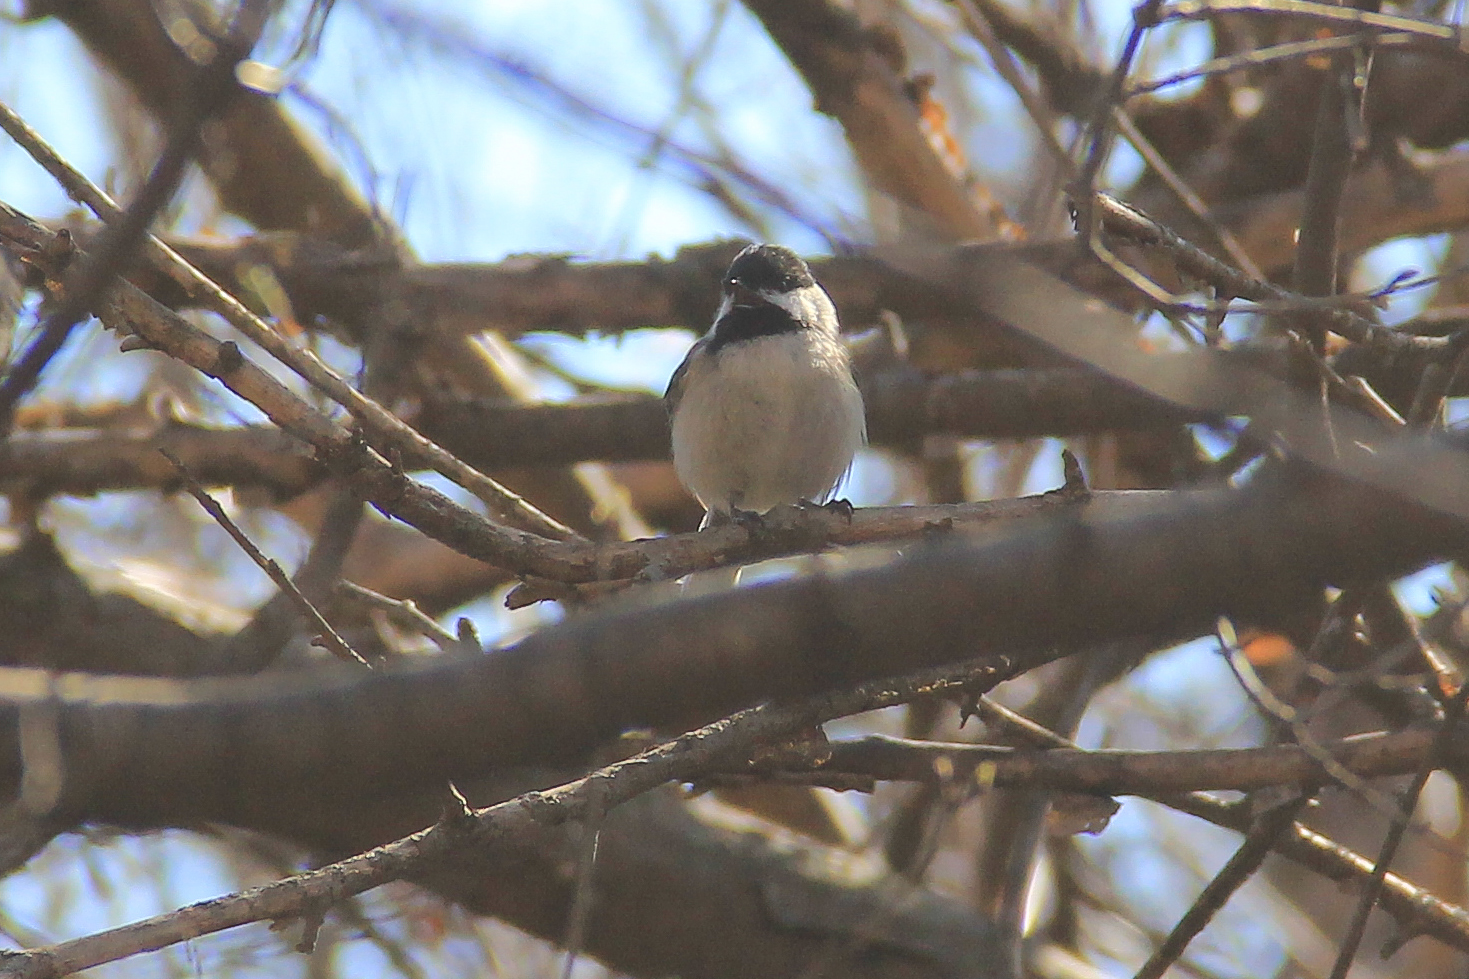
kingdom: Animalia
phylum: Chordata
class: Aves
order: Passeriformes
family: Paridae
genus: Poecile
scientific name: Poecile atricapillus
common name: Black-capped chickadee
